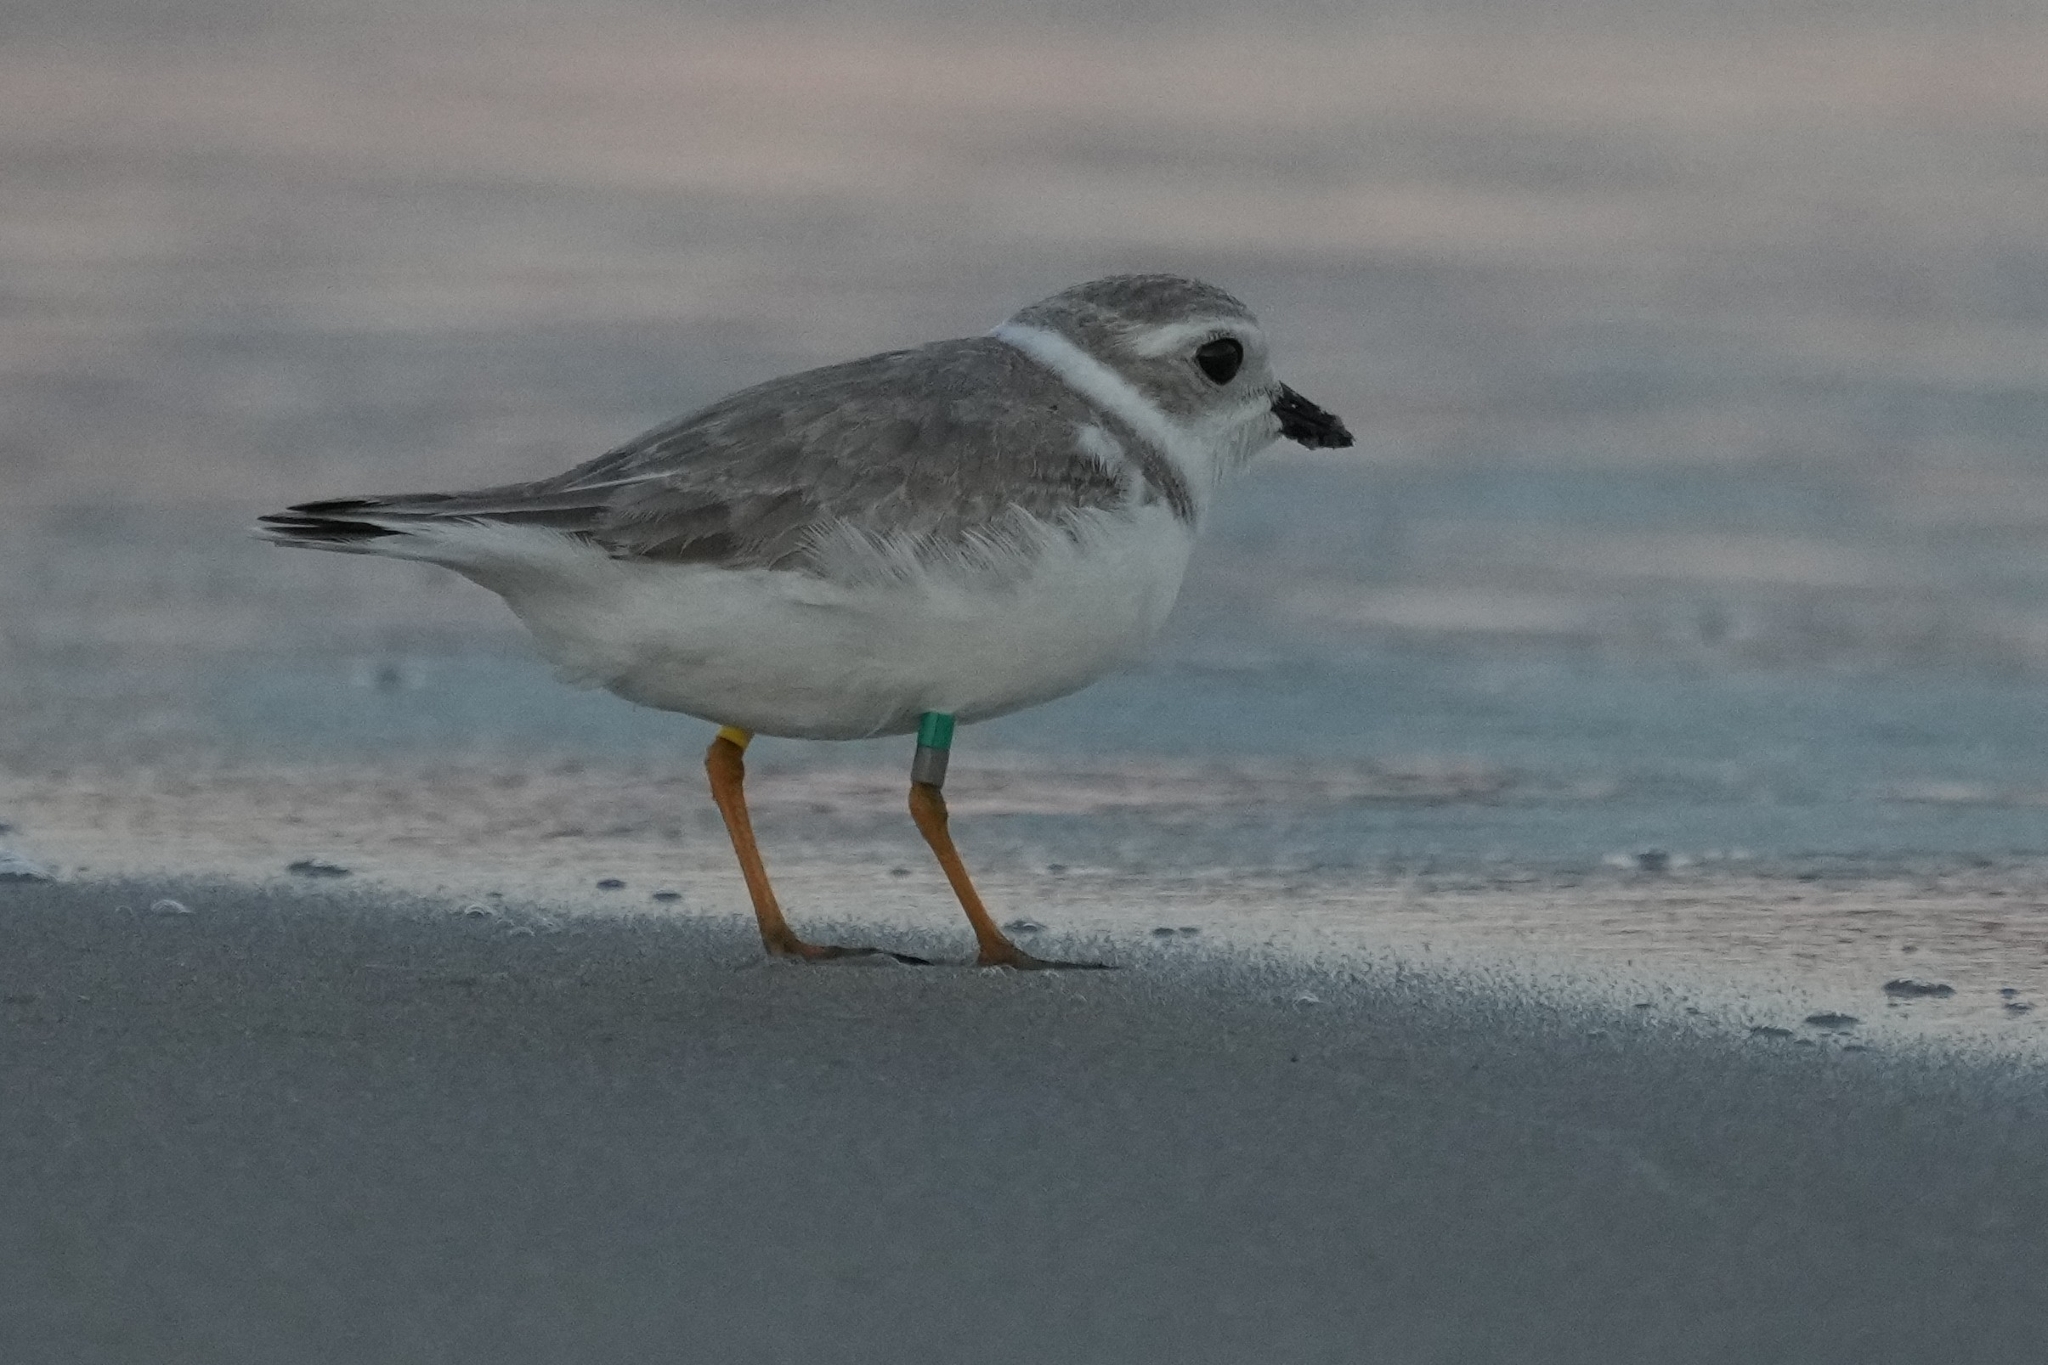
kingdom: Animalia
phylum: Chordata
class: Aves
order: Charadriiformes
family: Charadriidae
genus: Charadrius
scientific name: Charadrius melodus
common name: Piping plover
